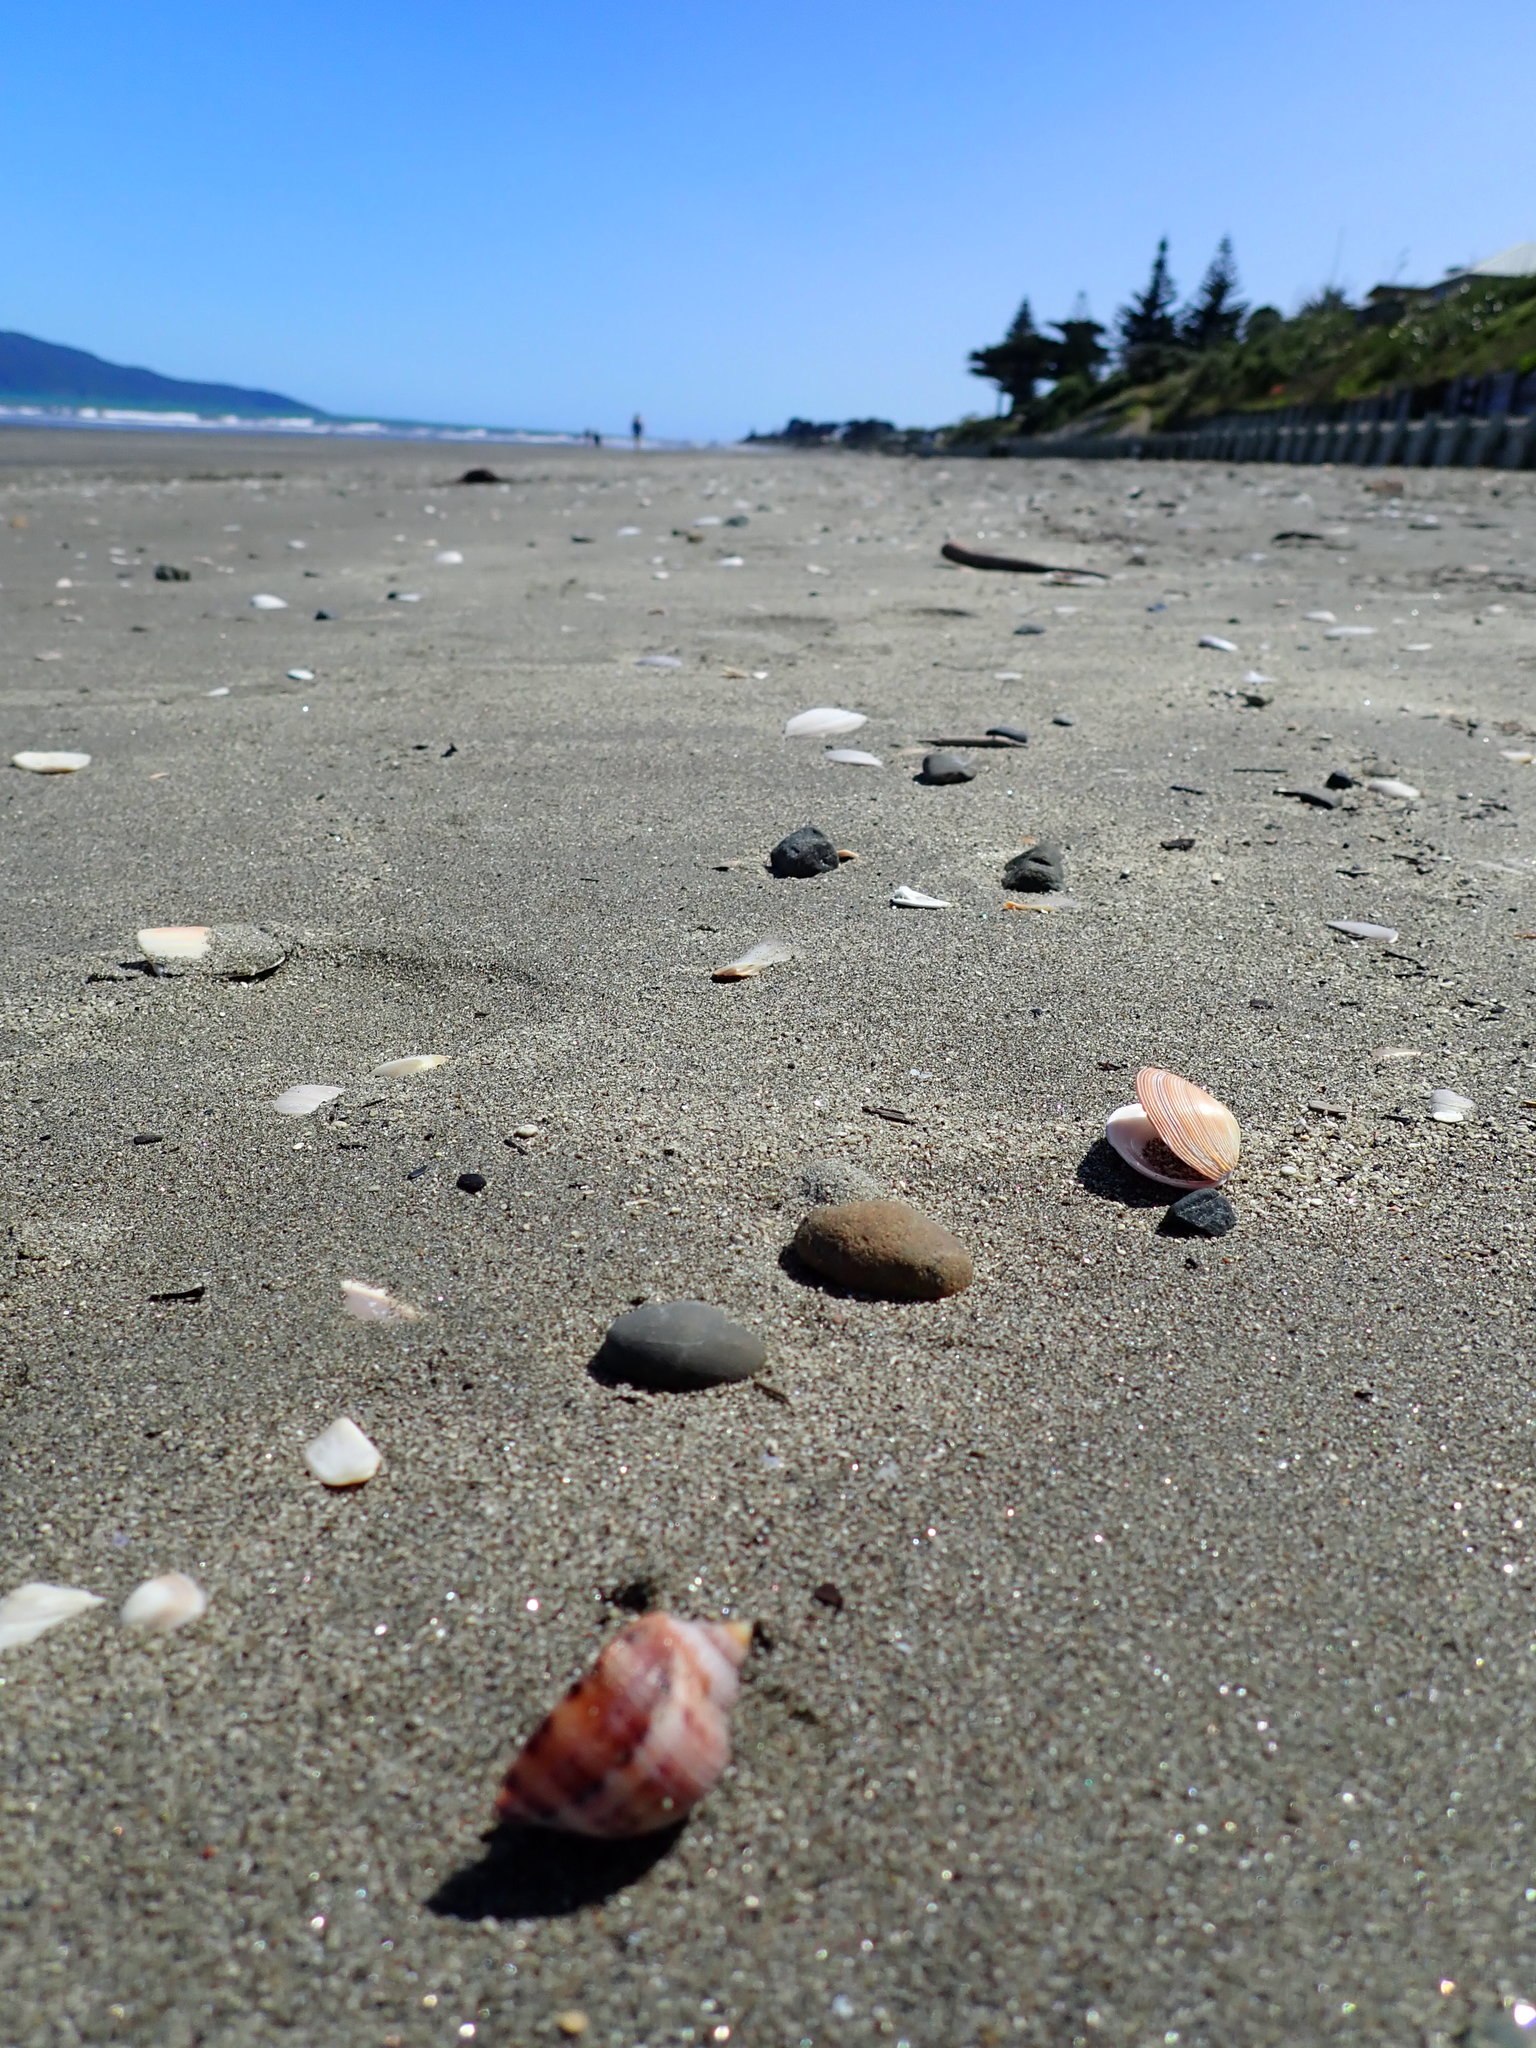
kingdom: Animalia
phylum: Mollusca
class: Gastropoda
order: Littorinimorpha
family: Cassidae
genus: Semicassis
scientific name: Semicassis pyrum
